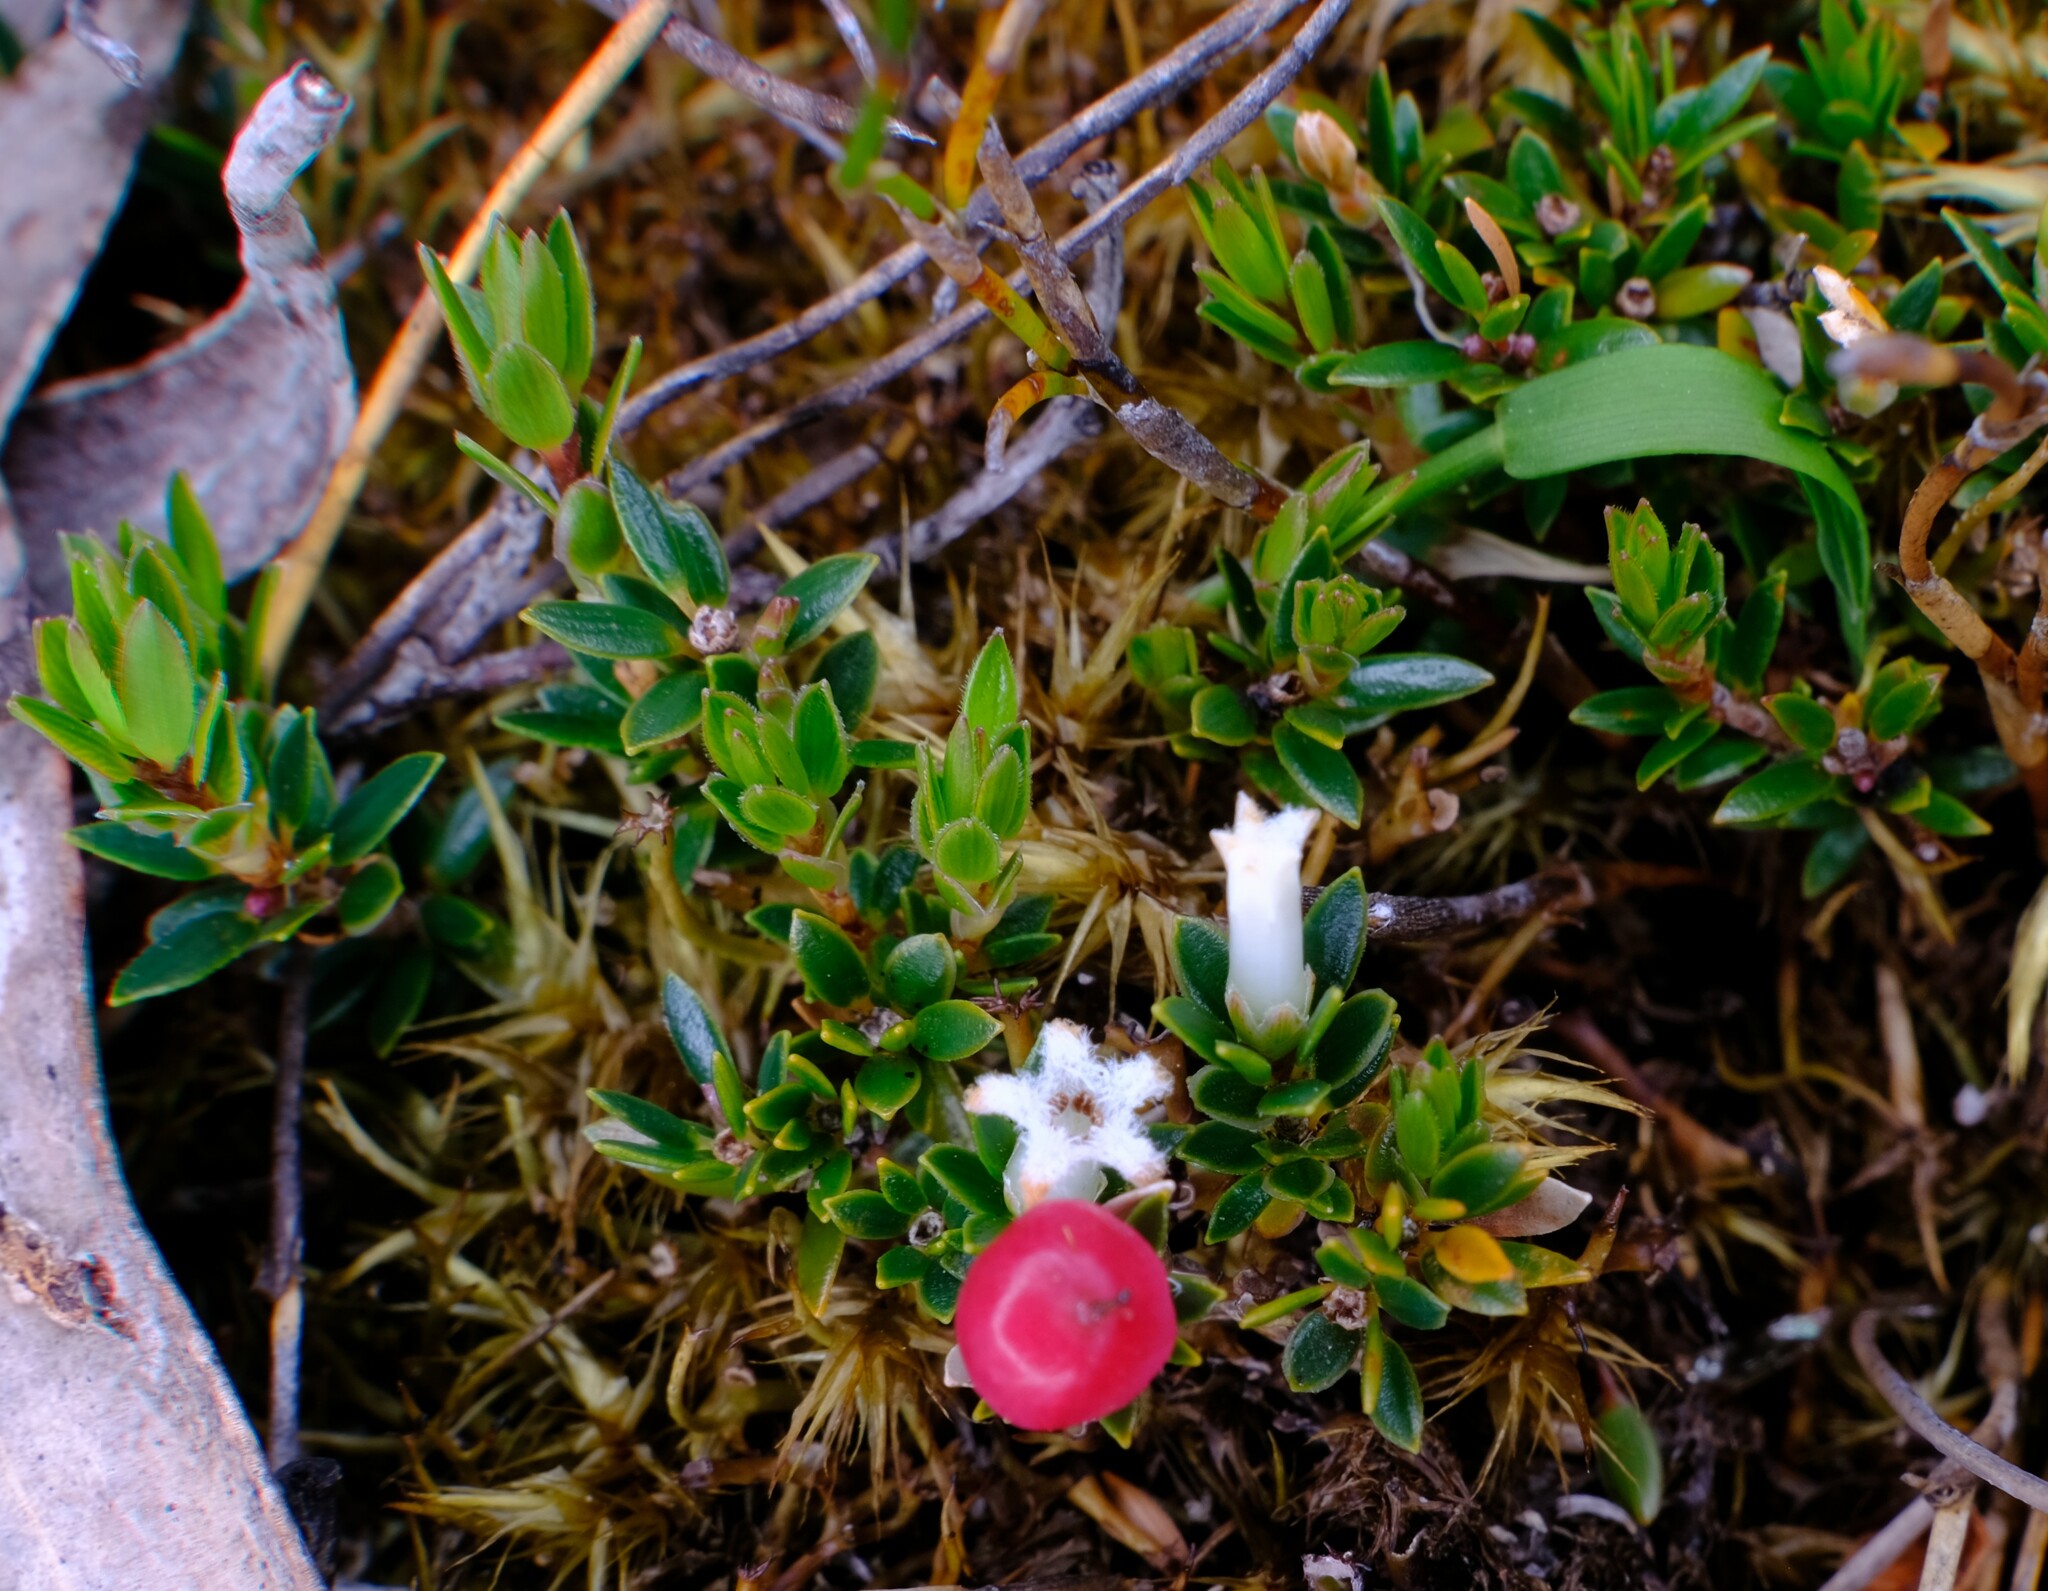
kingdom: Plantae
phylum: Tracheophyta
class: Magnoliopsida
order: Ericales
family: Ericaceae
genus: Pentachondra
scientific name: Pentachondra pumila
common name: Carpet-heath
